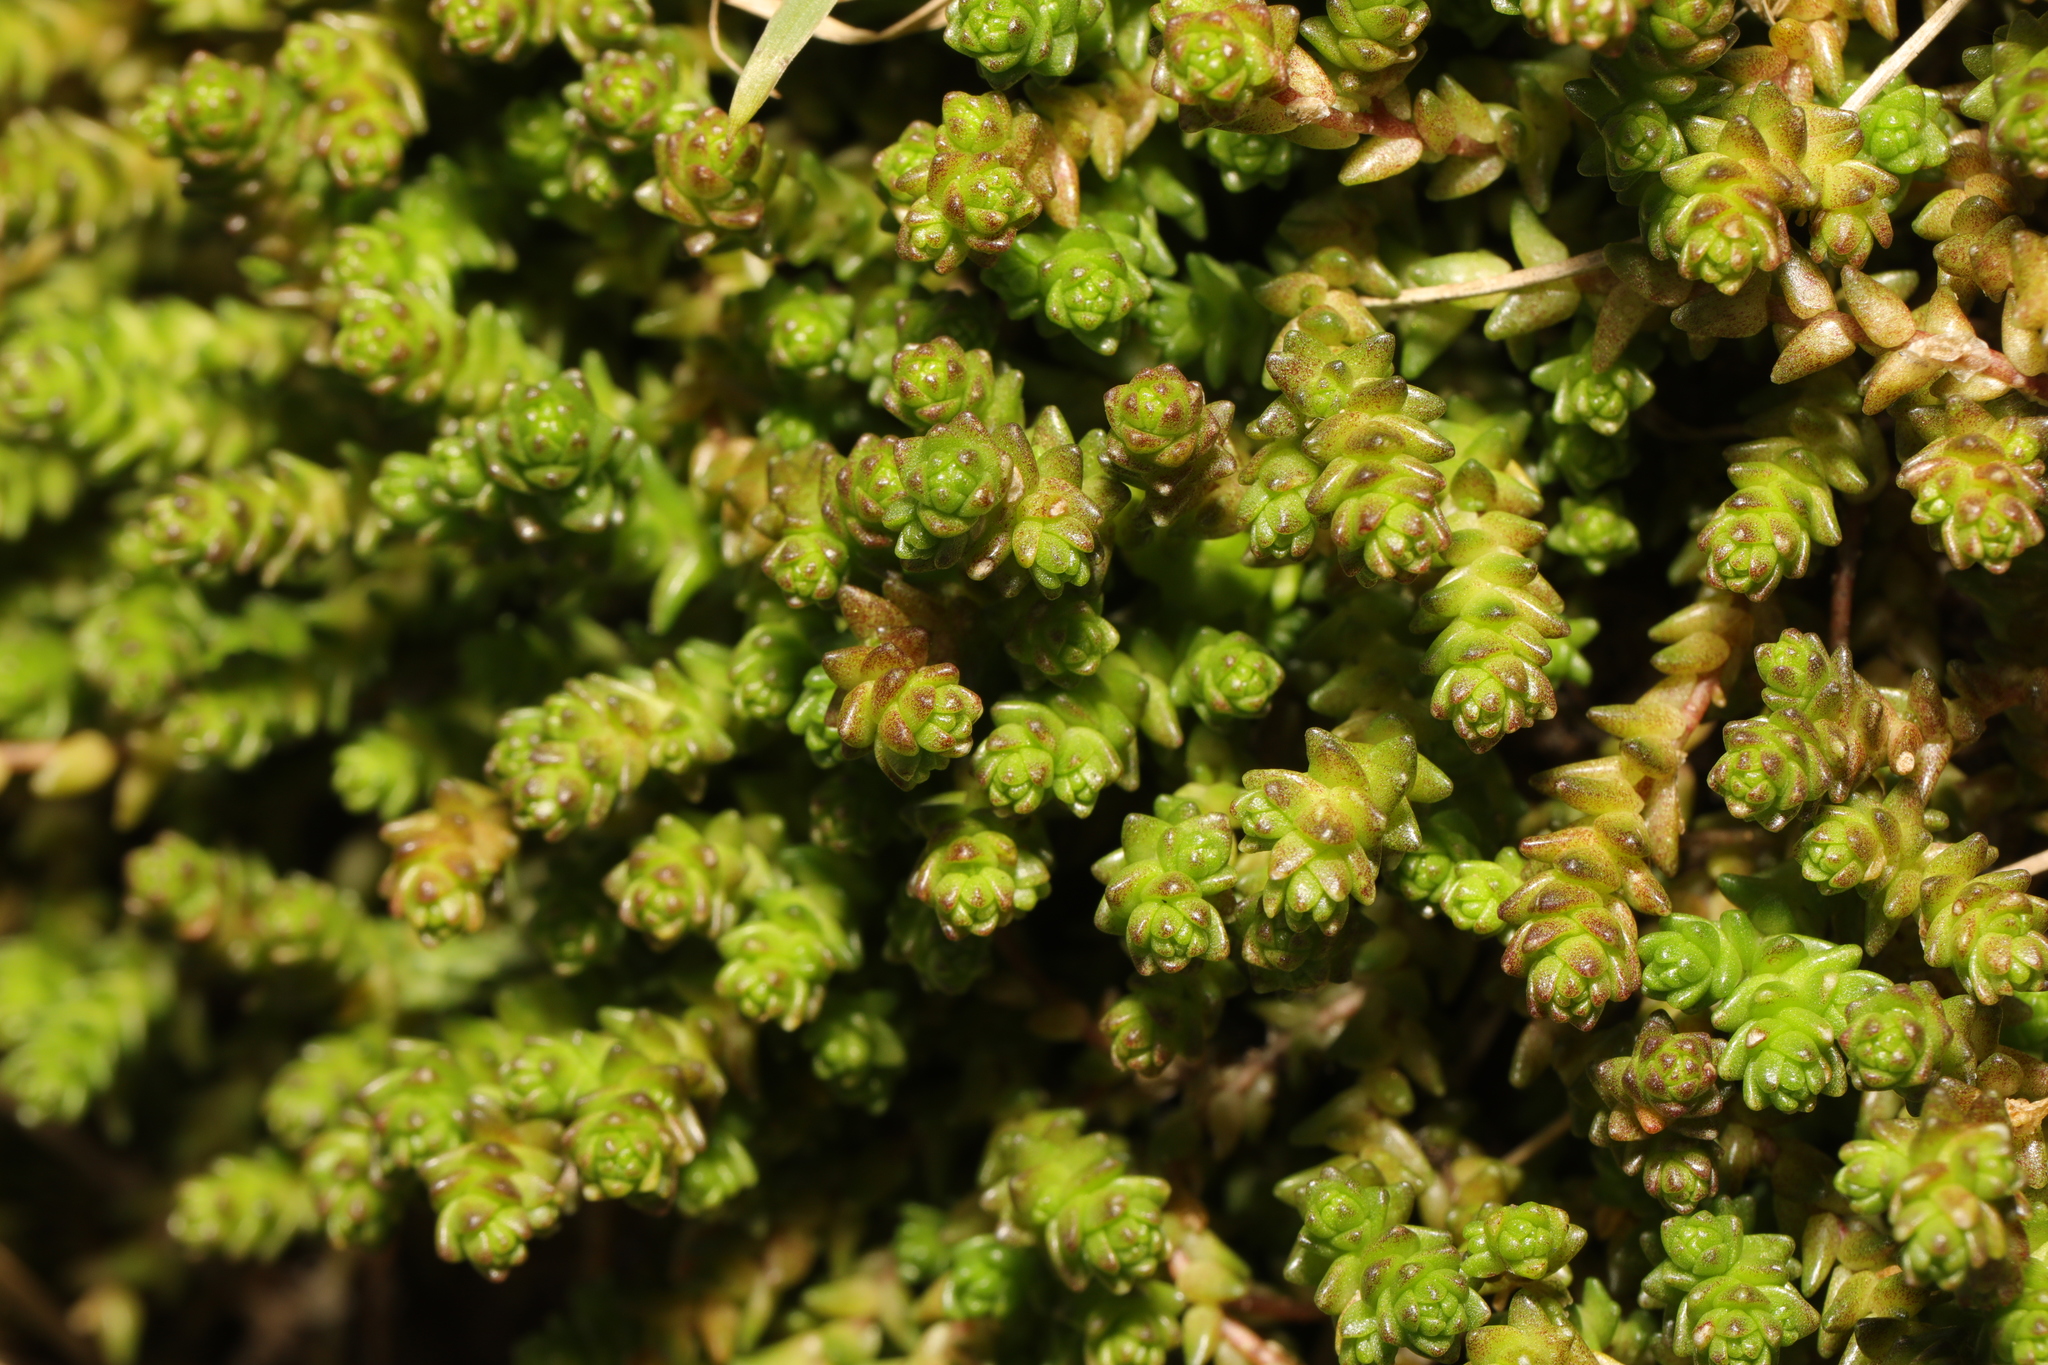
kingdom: Plantae
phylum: Tracheophyta
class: Magnoliopsida
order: Saxifragales
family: Crassulaceae
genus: Sedum
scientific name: Sedum acre
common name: Biting stonecrop
